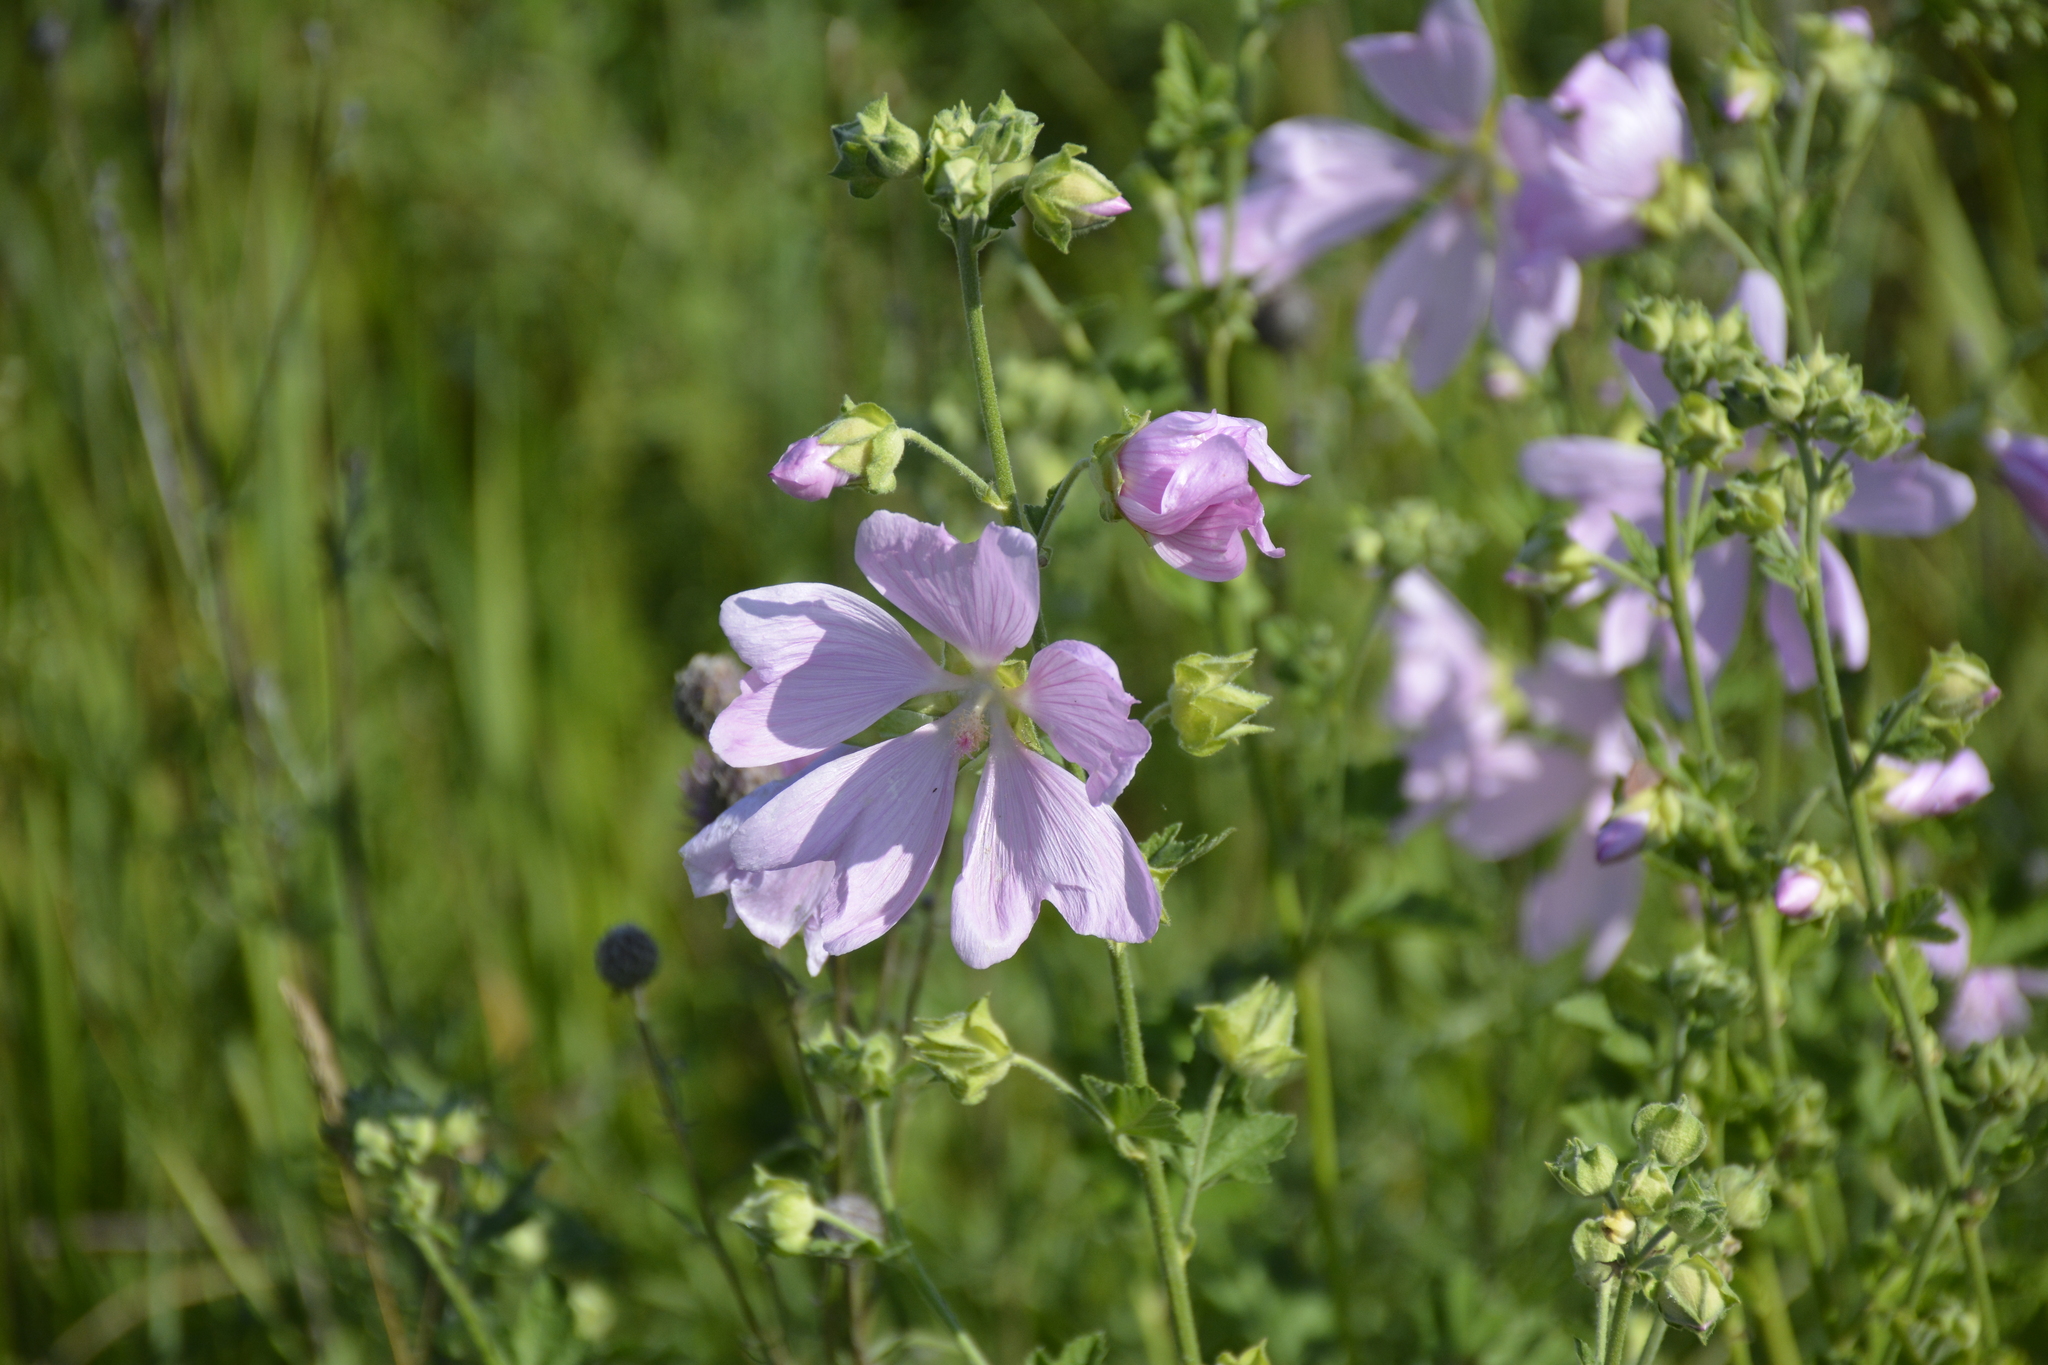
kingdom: Plantae
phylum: Tracheophyta
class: Magnoliopsida
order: Malvales
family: Malvaceae
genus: Malva
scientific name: Malva thuringiaca
